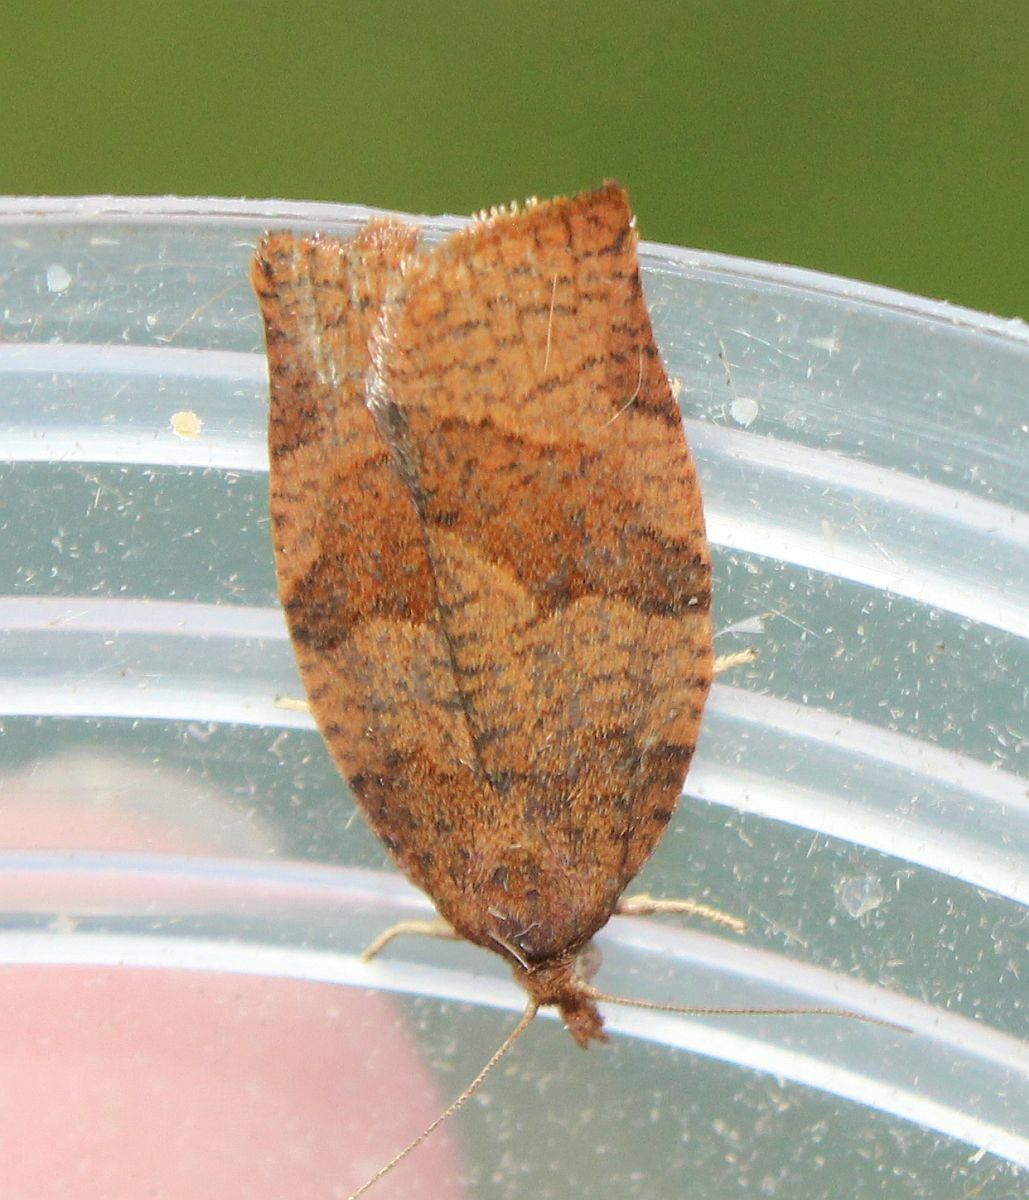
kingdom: Animalia
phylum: Arthropoda
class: Insecta
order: Lepidoptera
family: Tortricidae
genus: Pandemis
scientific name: Pandemis heparana
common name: Dark fruit-tree tortrix
